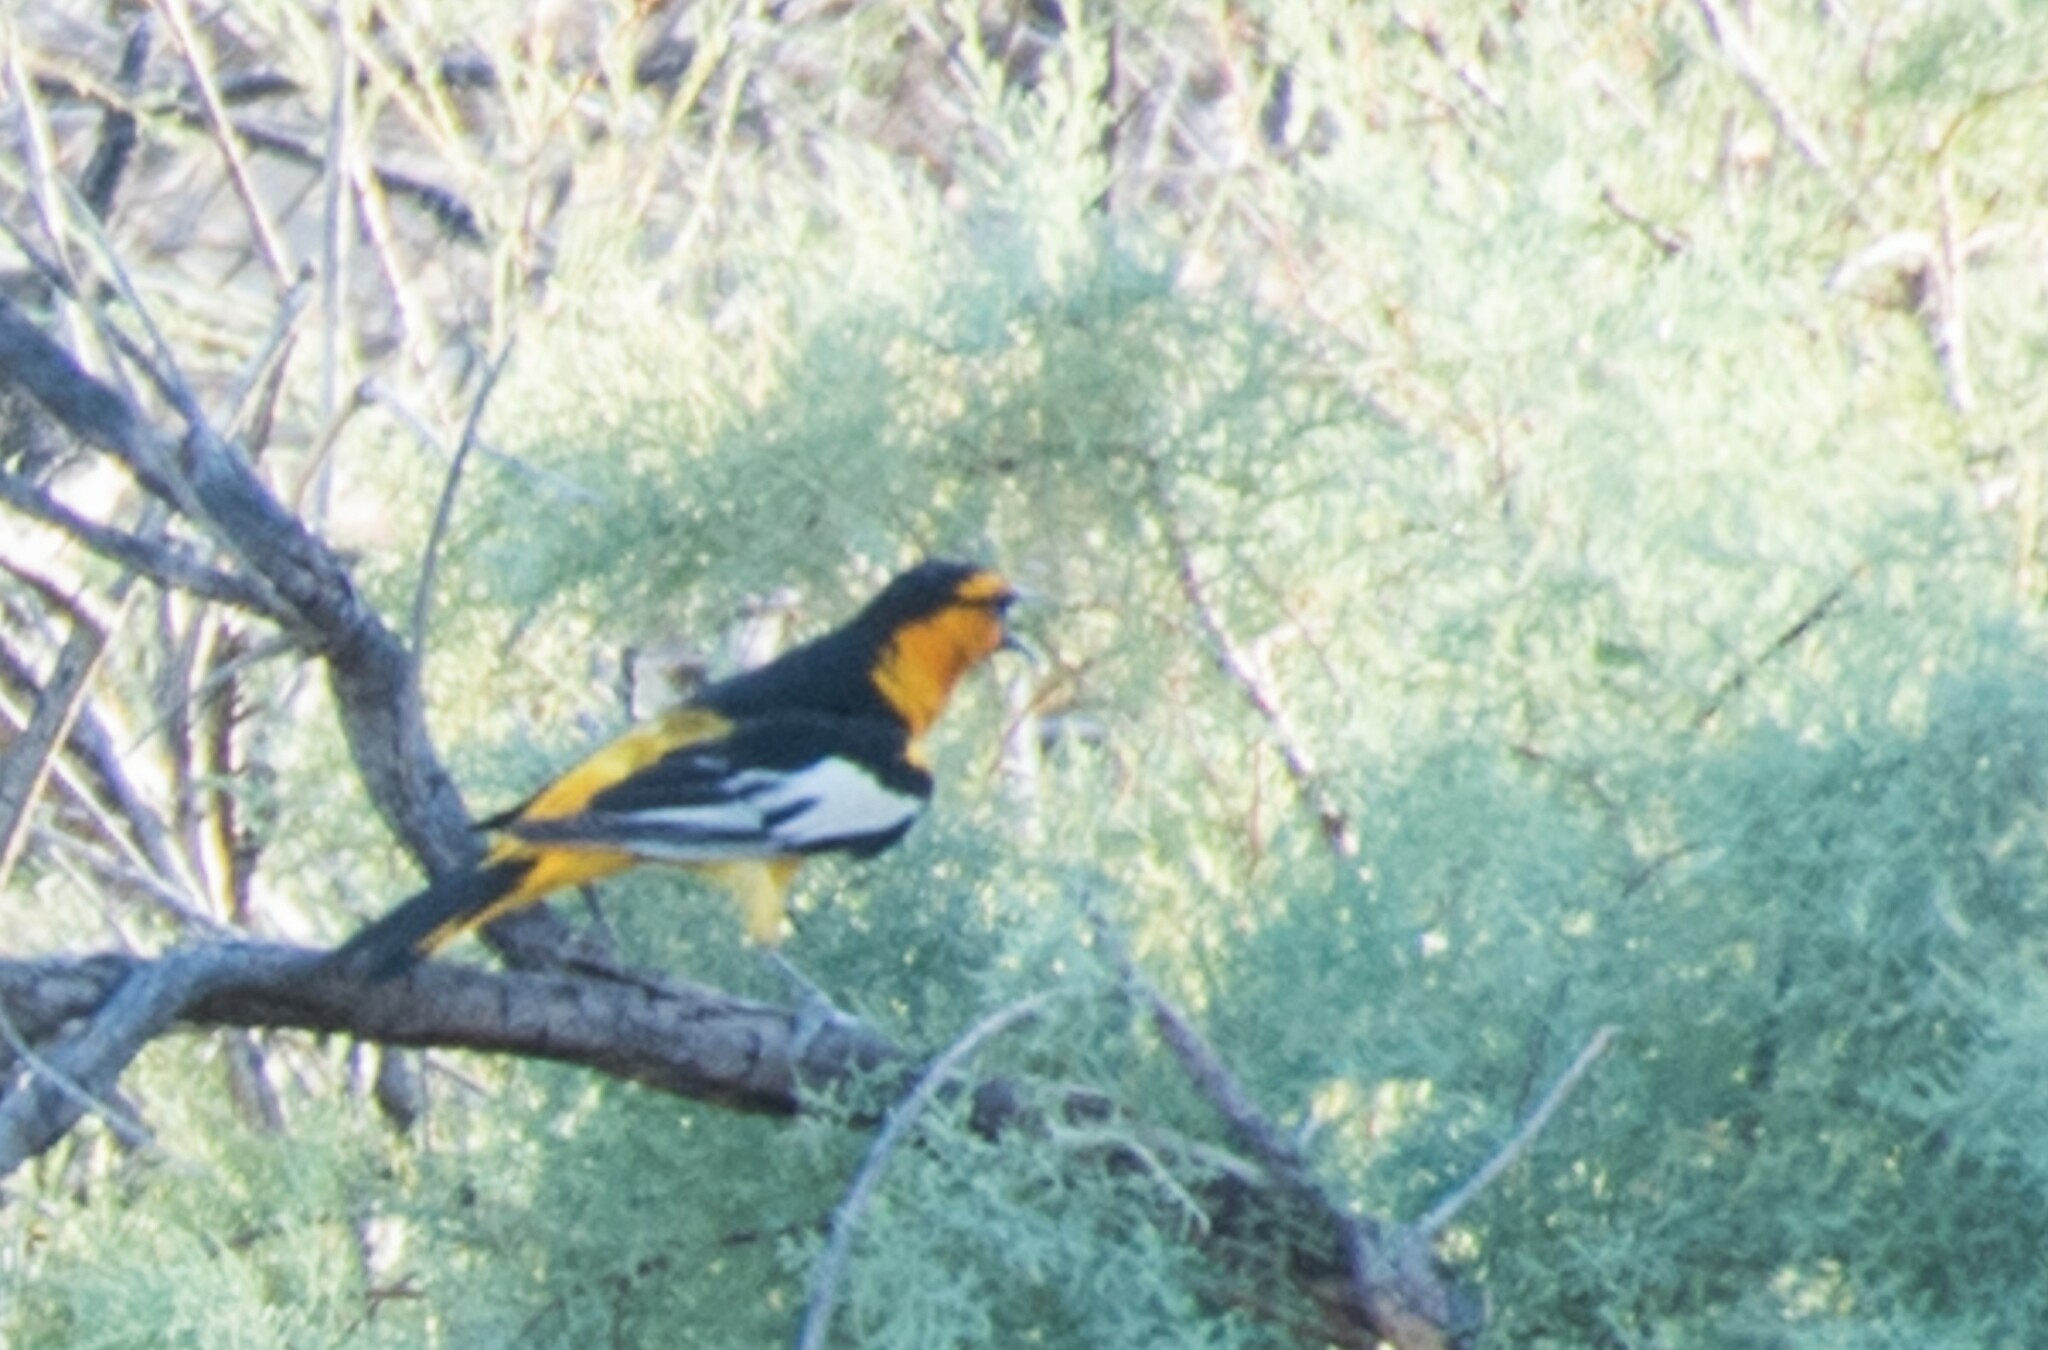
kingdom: Animalia
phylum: Chordata
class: Aves
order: Passeriformes
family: Icteridae
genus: Icterus
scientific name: Icterus bullockii
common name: Bullock's oriole
